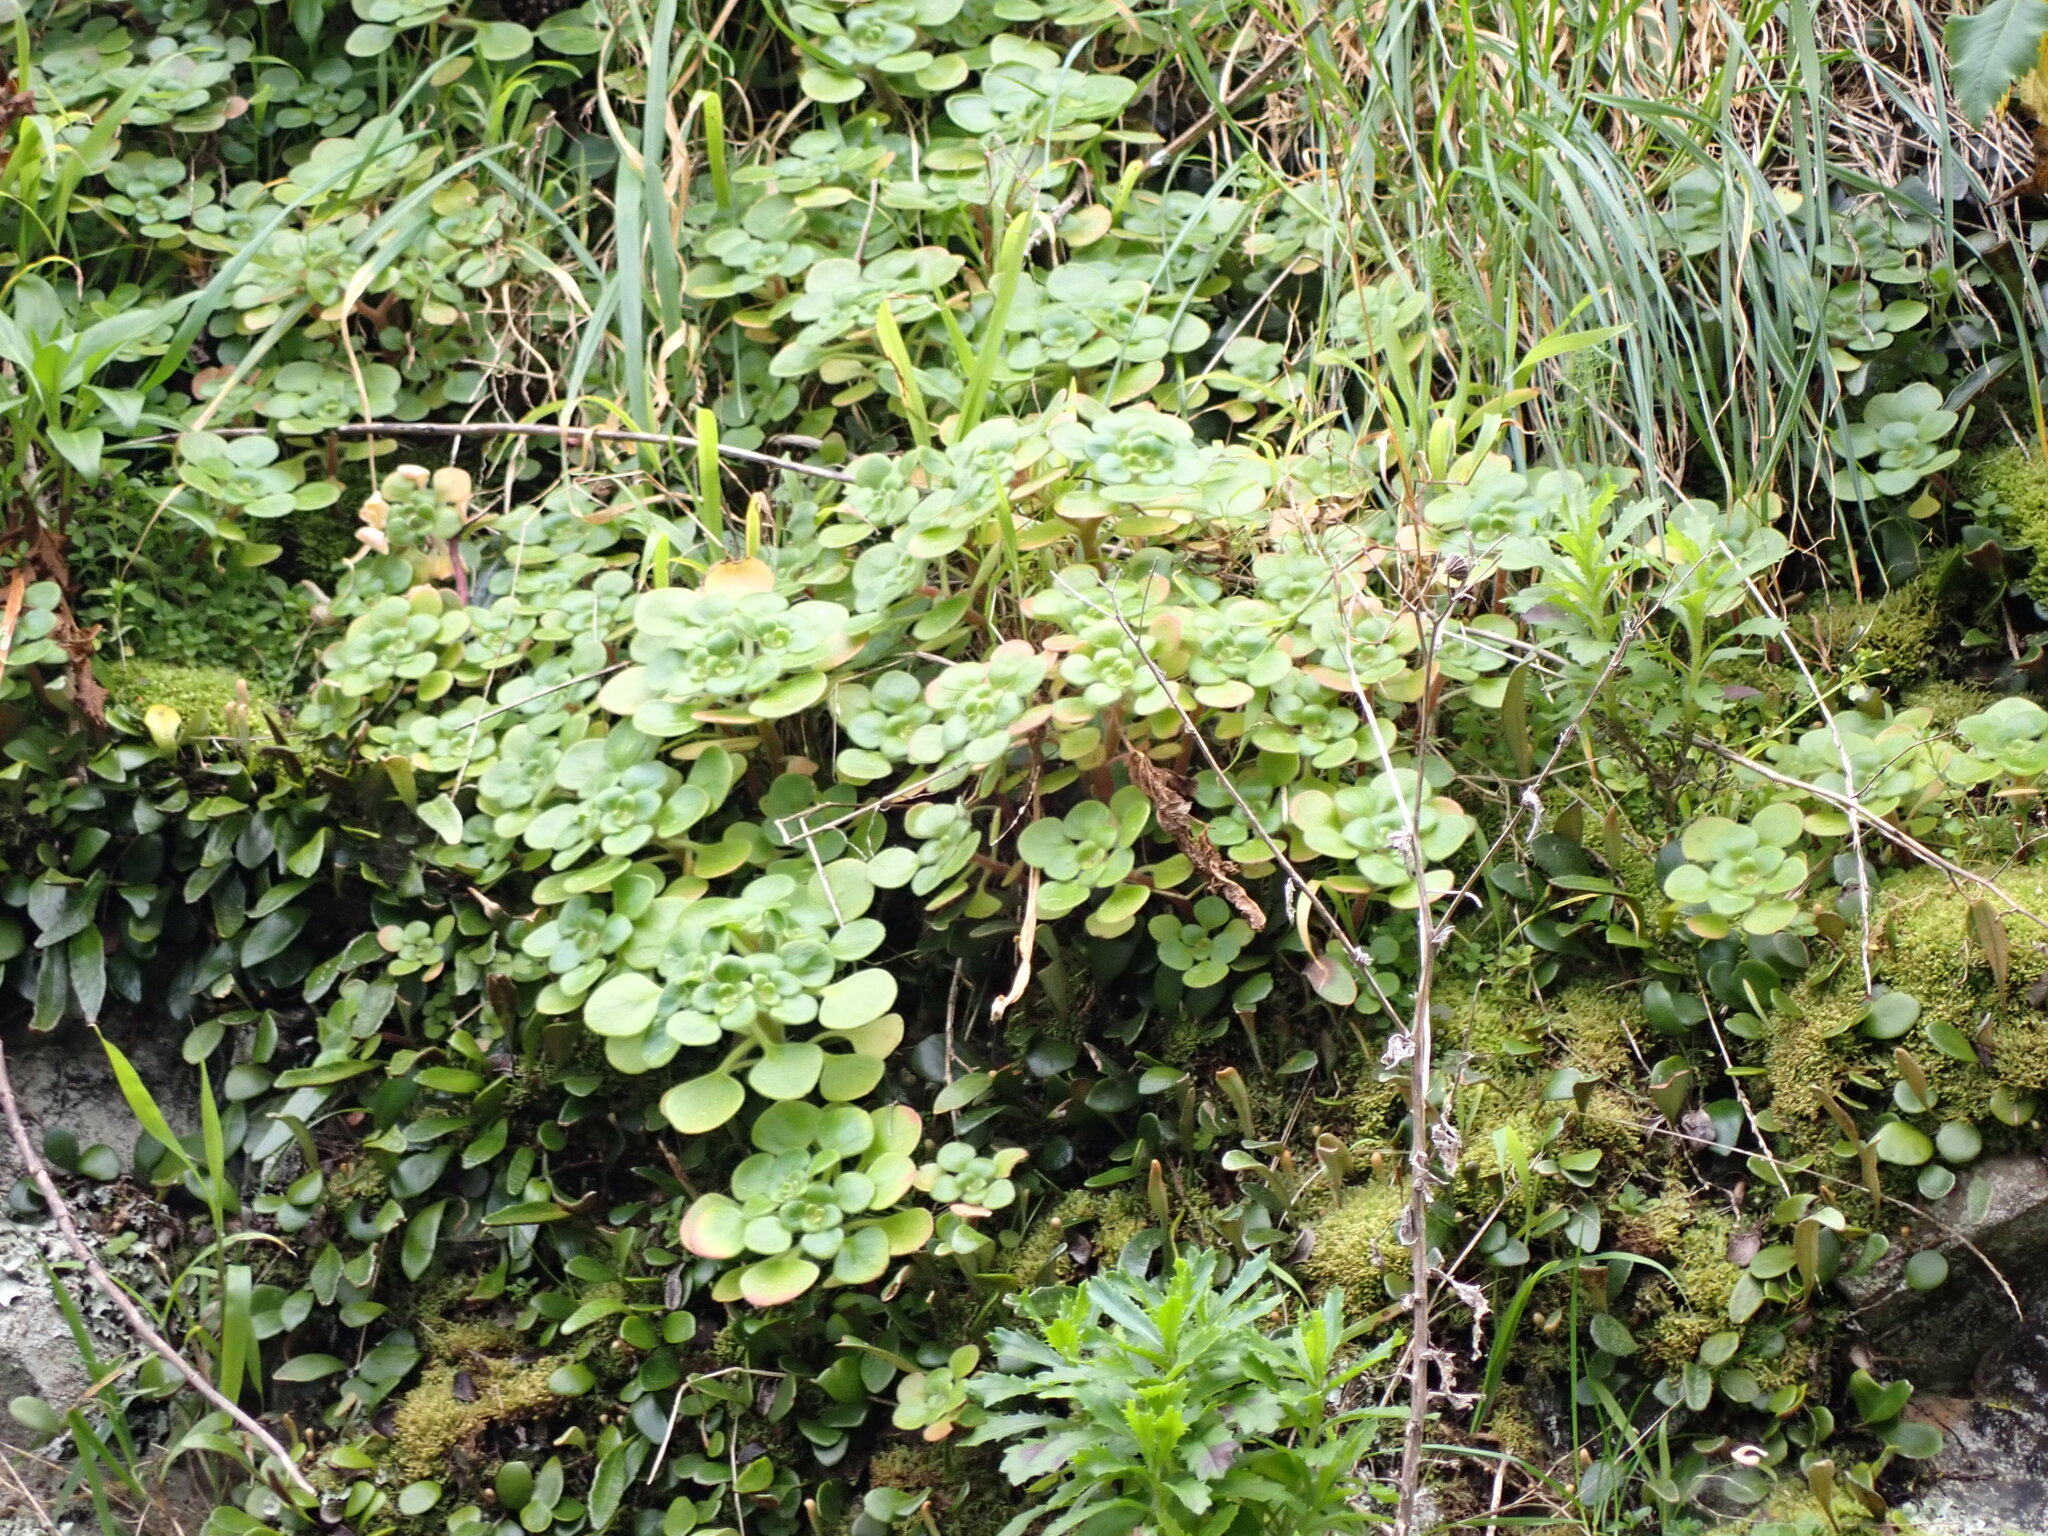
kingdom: Plantae
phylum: Tracheophyta
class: Magnoliopsida
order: Saxifragales
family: Crassulaceae
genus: Aichryson
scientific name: Aichryson laxum
